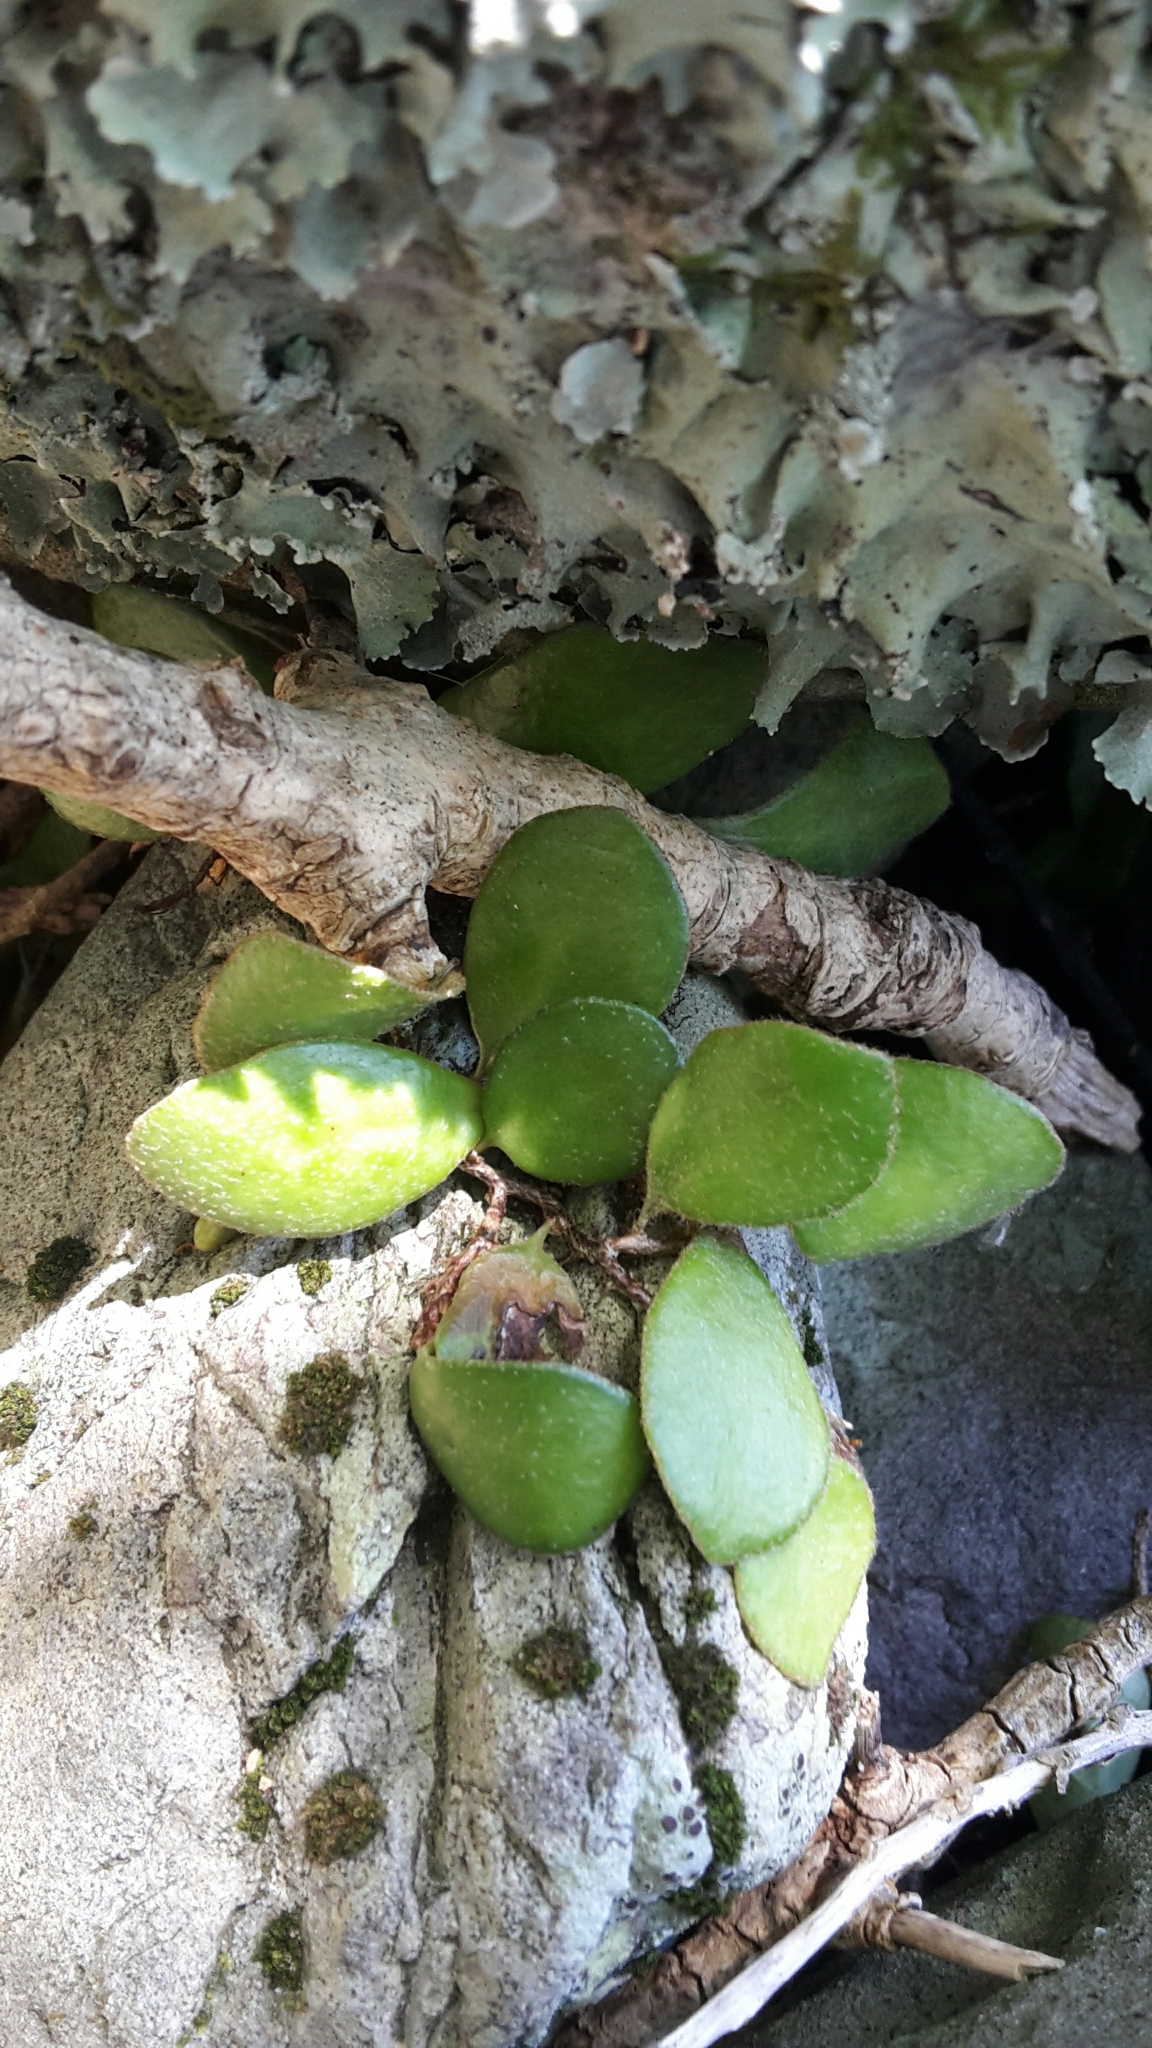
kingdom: Plantae
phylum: Tracheophyta
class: Polypodiopsida
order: Polypodiales
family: Polypodiaceae
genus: Pyrrosia
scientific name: Pyrrosia eleagnifolia
